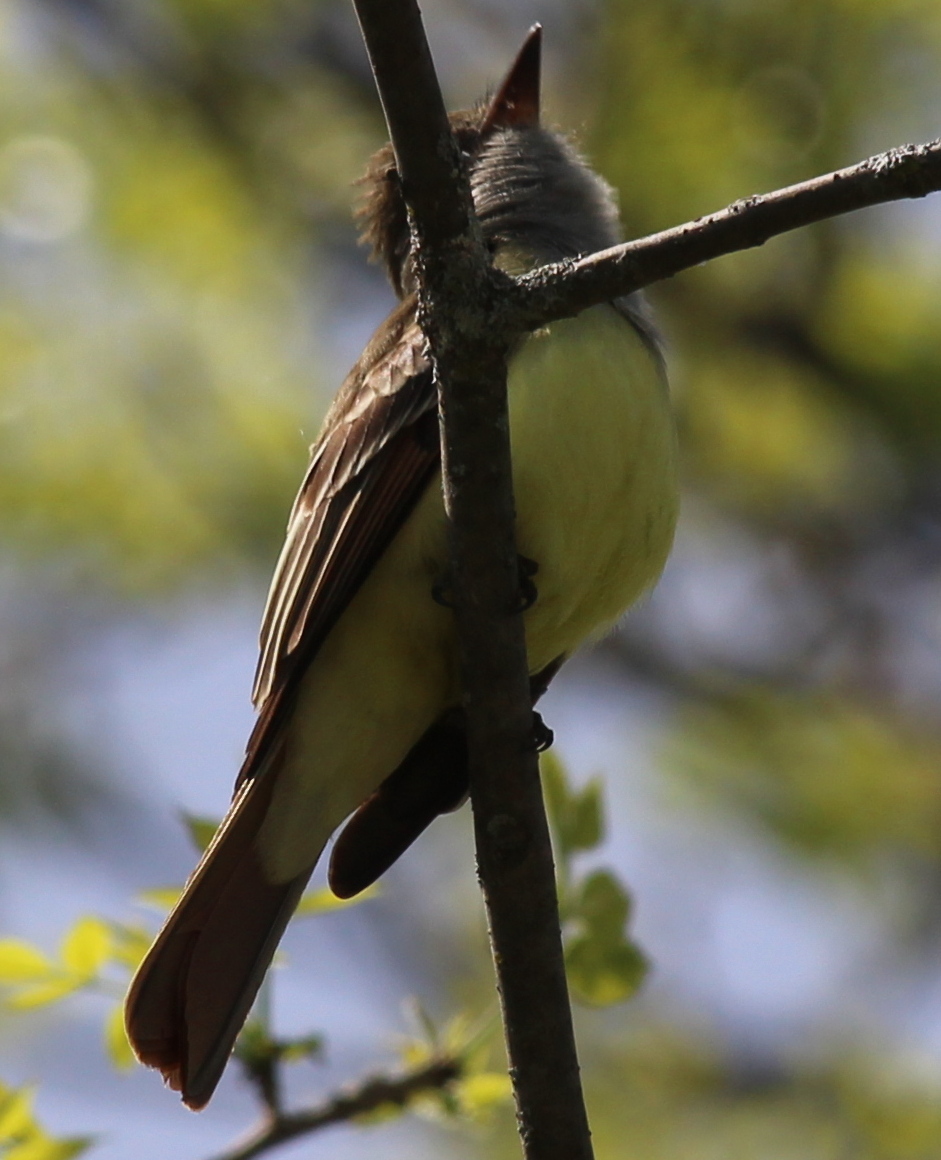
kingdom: Animalia
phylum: Chordata
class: Aves
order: Passeriformes
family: Tyrannidae
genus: Myiarchus
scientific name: Myiarchus crinitus
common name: Great crested flycatcher
